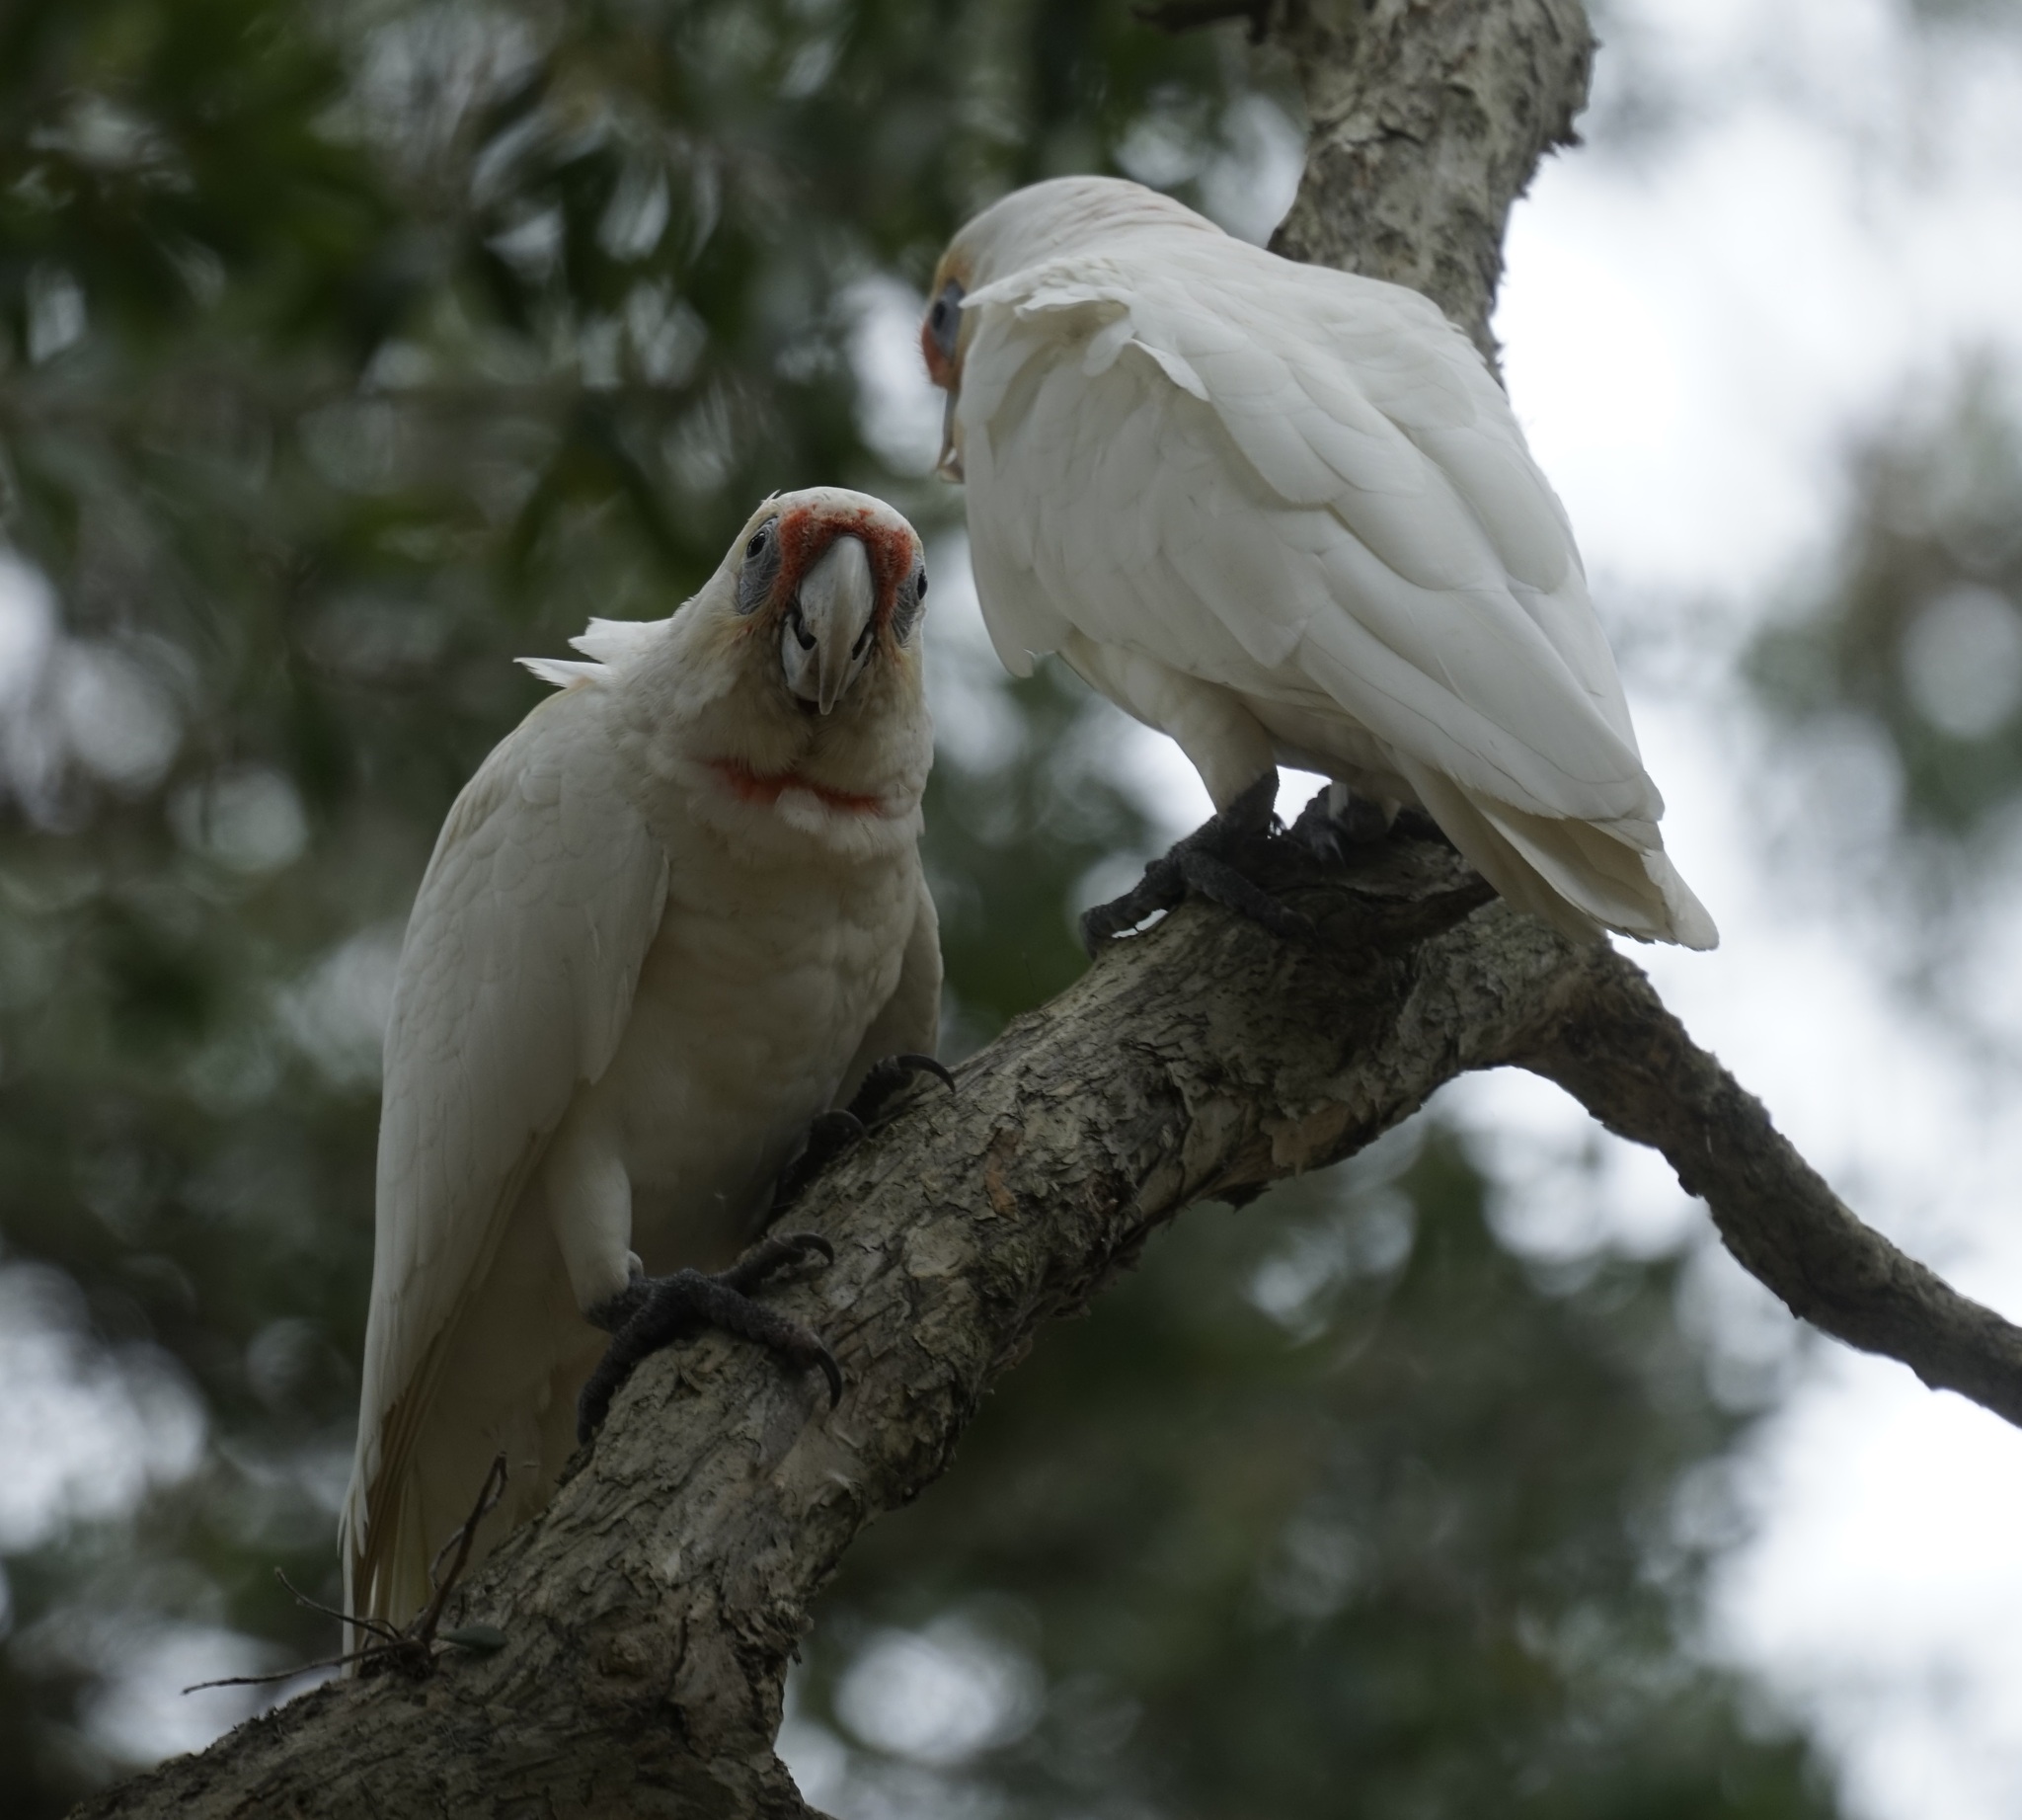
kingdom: Animalia
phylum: Chordata
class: Aves
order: Psittaciformes
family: Psittacidae
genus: Cacatua
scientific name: Cacatua tenuirostris
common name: Long-billed corella
